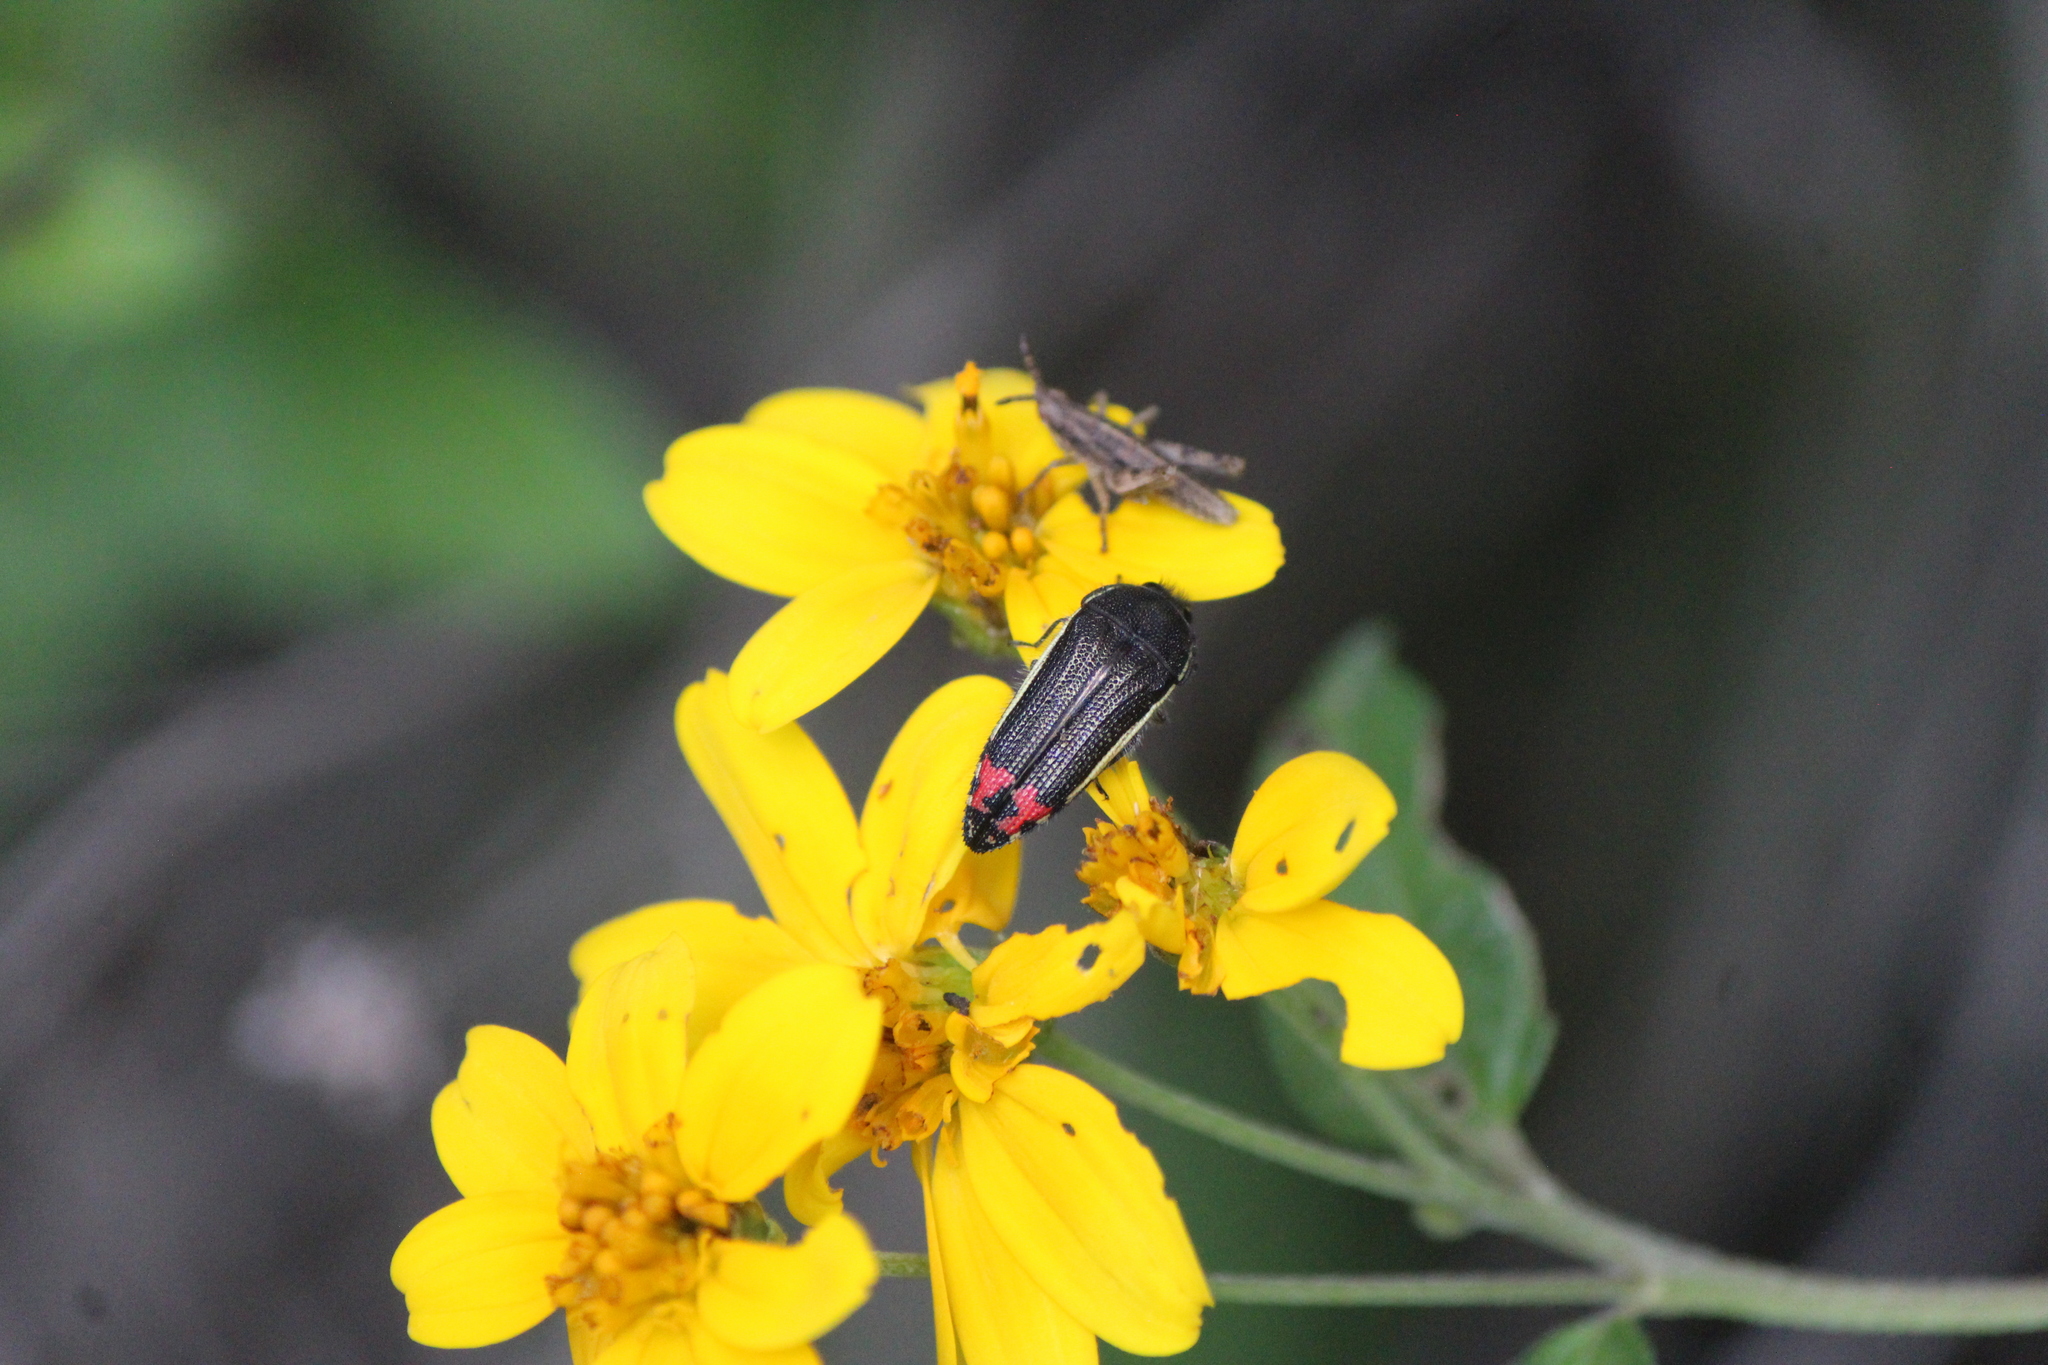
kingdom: Animalia
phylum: Arthropoda
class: Insecta
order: Coleoptera
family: Buprestidae
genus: Acmaeodera
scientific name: Acmaeodera flavomarginata
